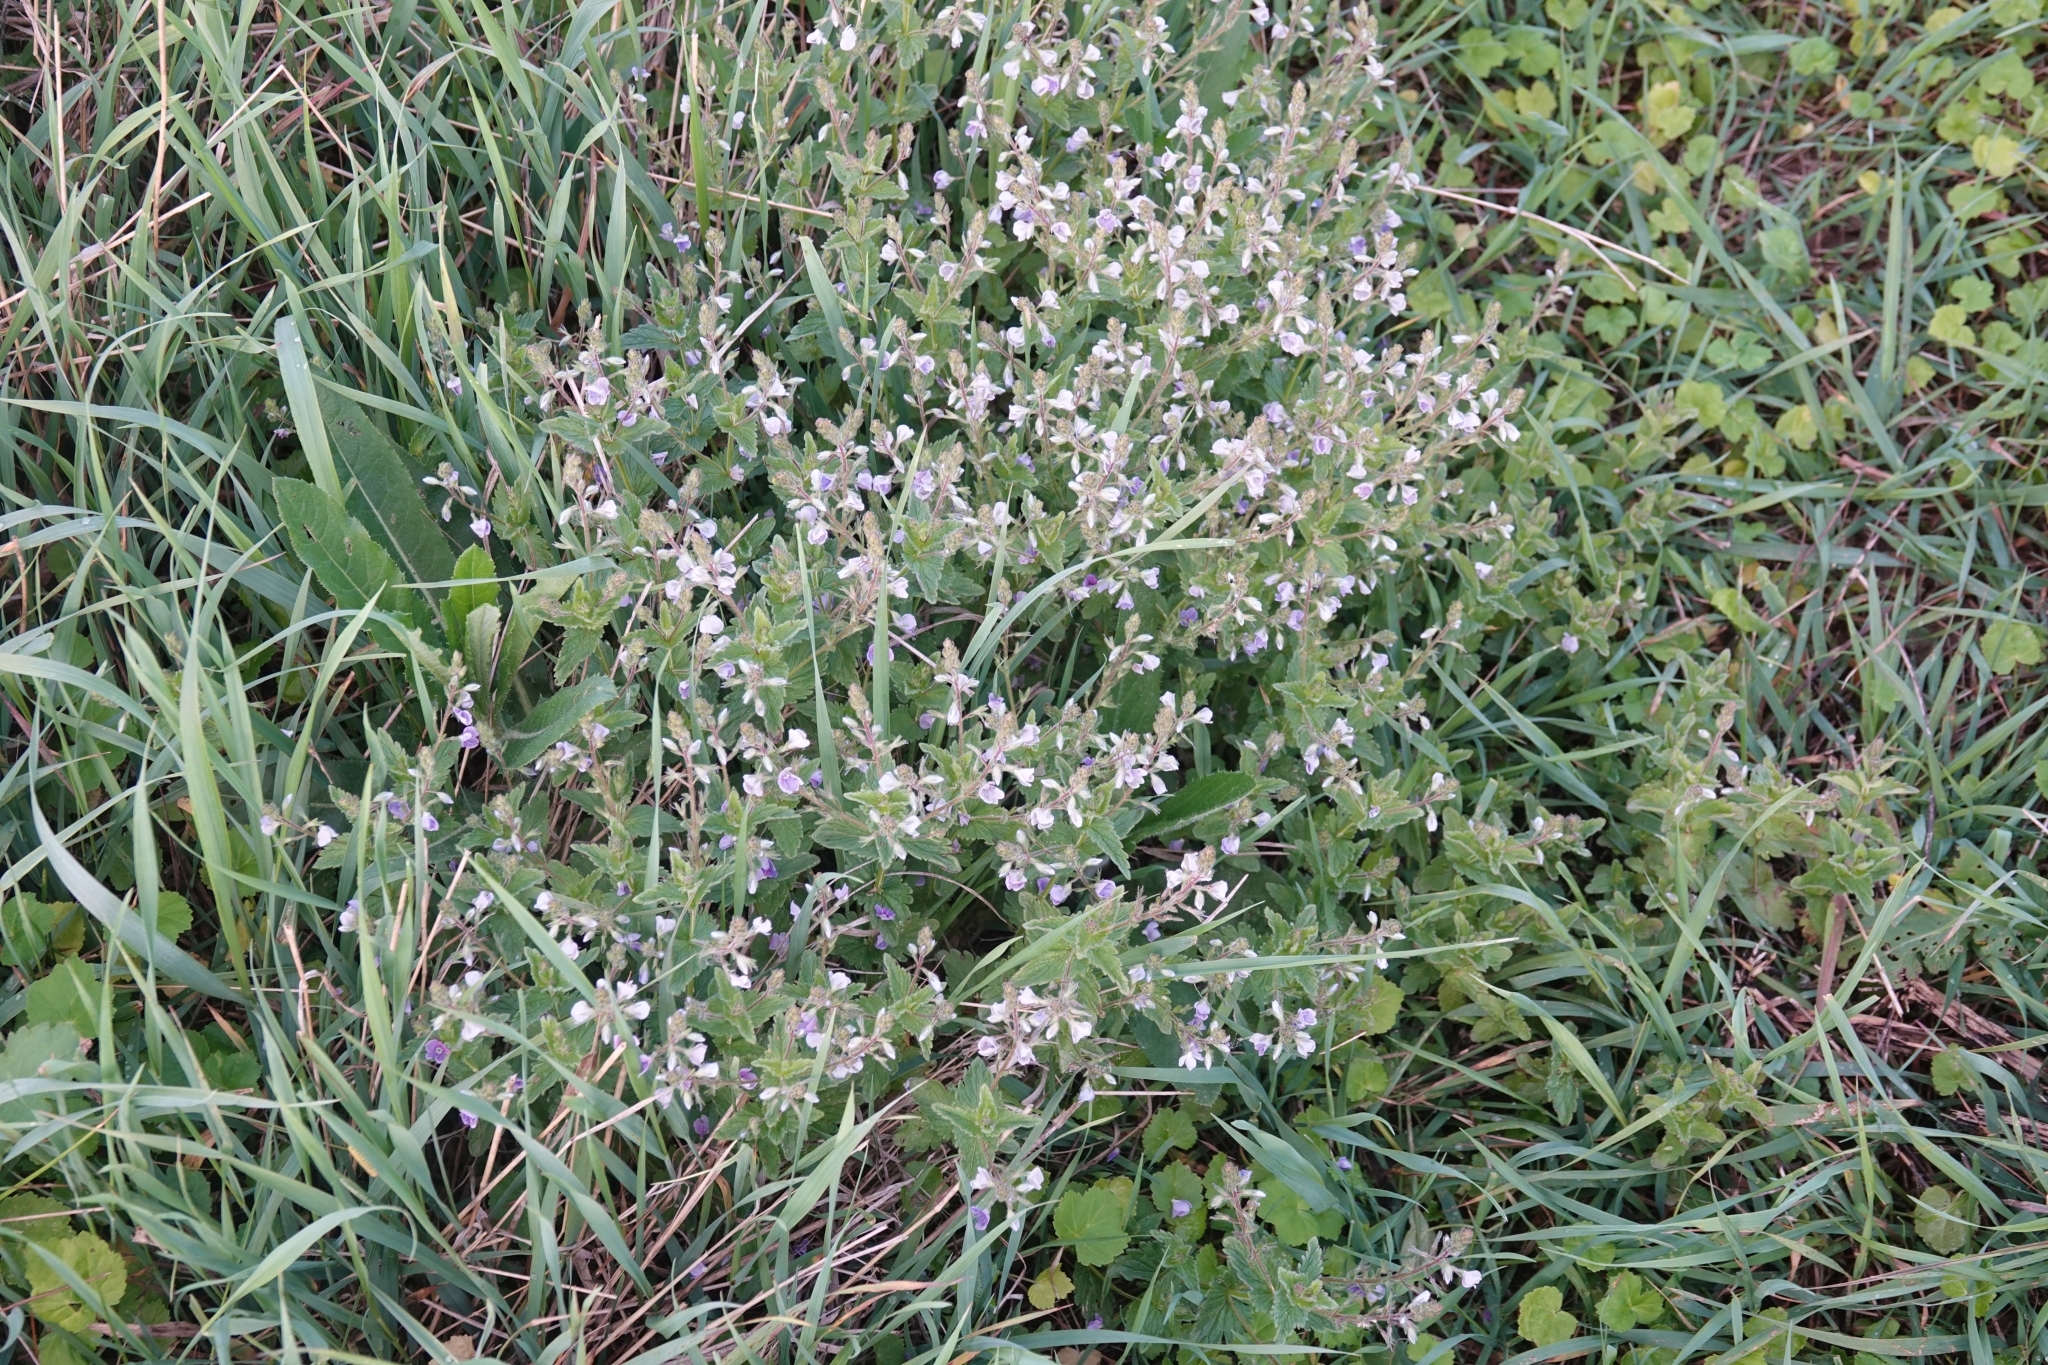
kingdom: Plantae
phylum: Tracheophyta
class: Magnoliopsida
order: Lamiales
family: Plantaginaceae
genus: Veronica
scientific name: Veronica chamaedrys
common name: Germander speedwell
